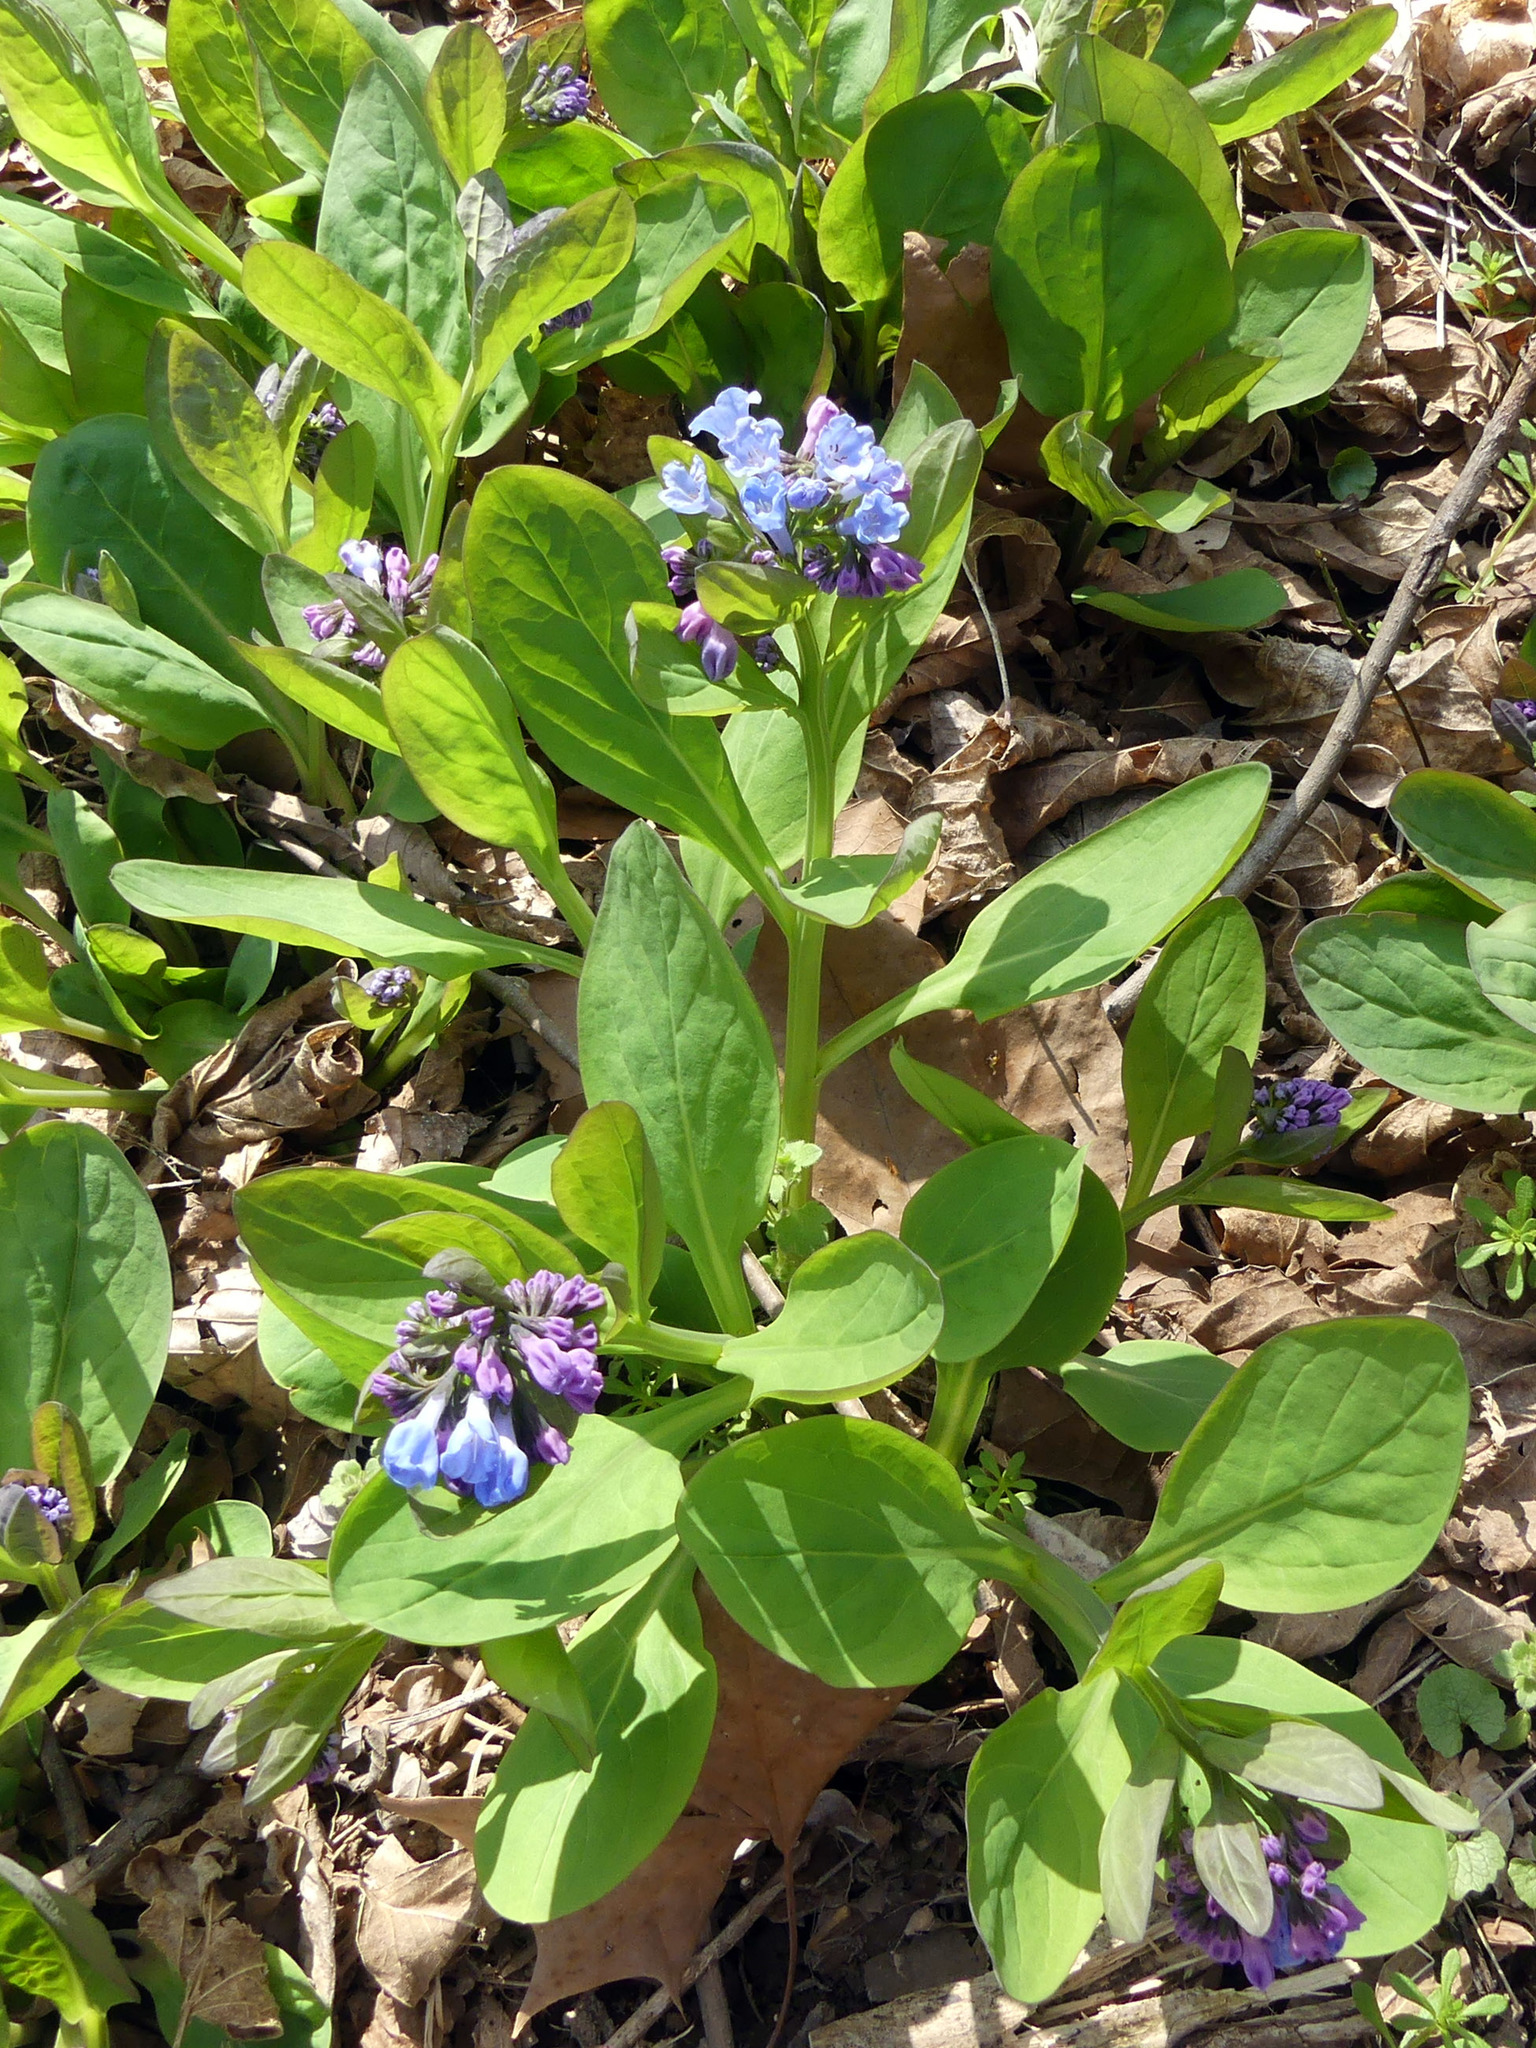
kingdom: Plantae
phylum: Tracheophyta
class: Magnoliopsida
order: Boraginales
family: Boraginaceae
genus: Mertensia
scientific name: Mertensia virginica
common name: Virginia bluebells
